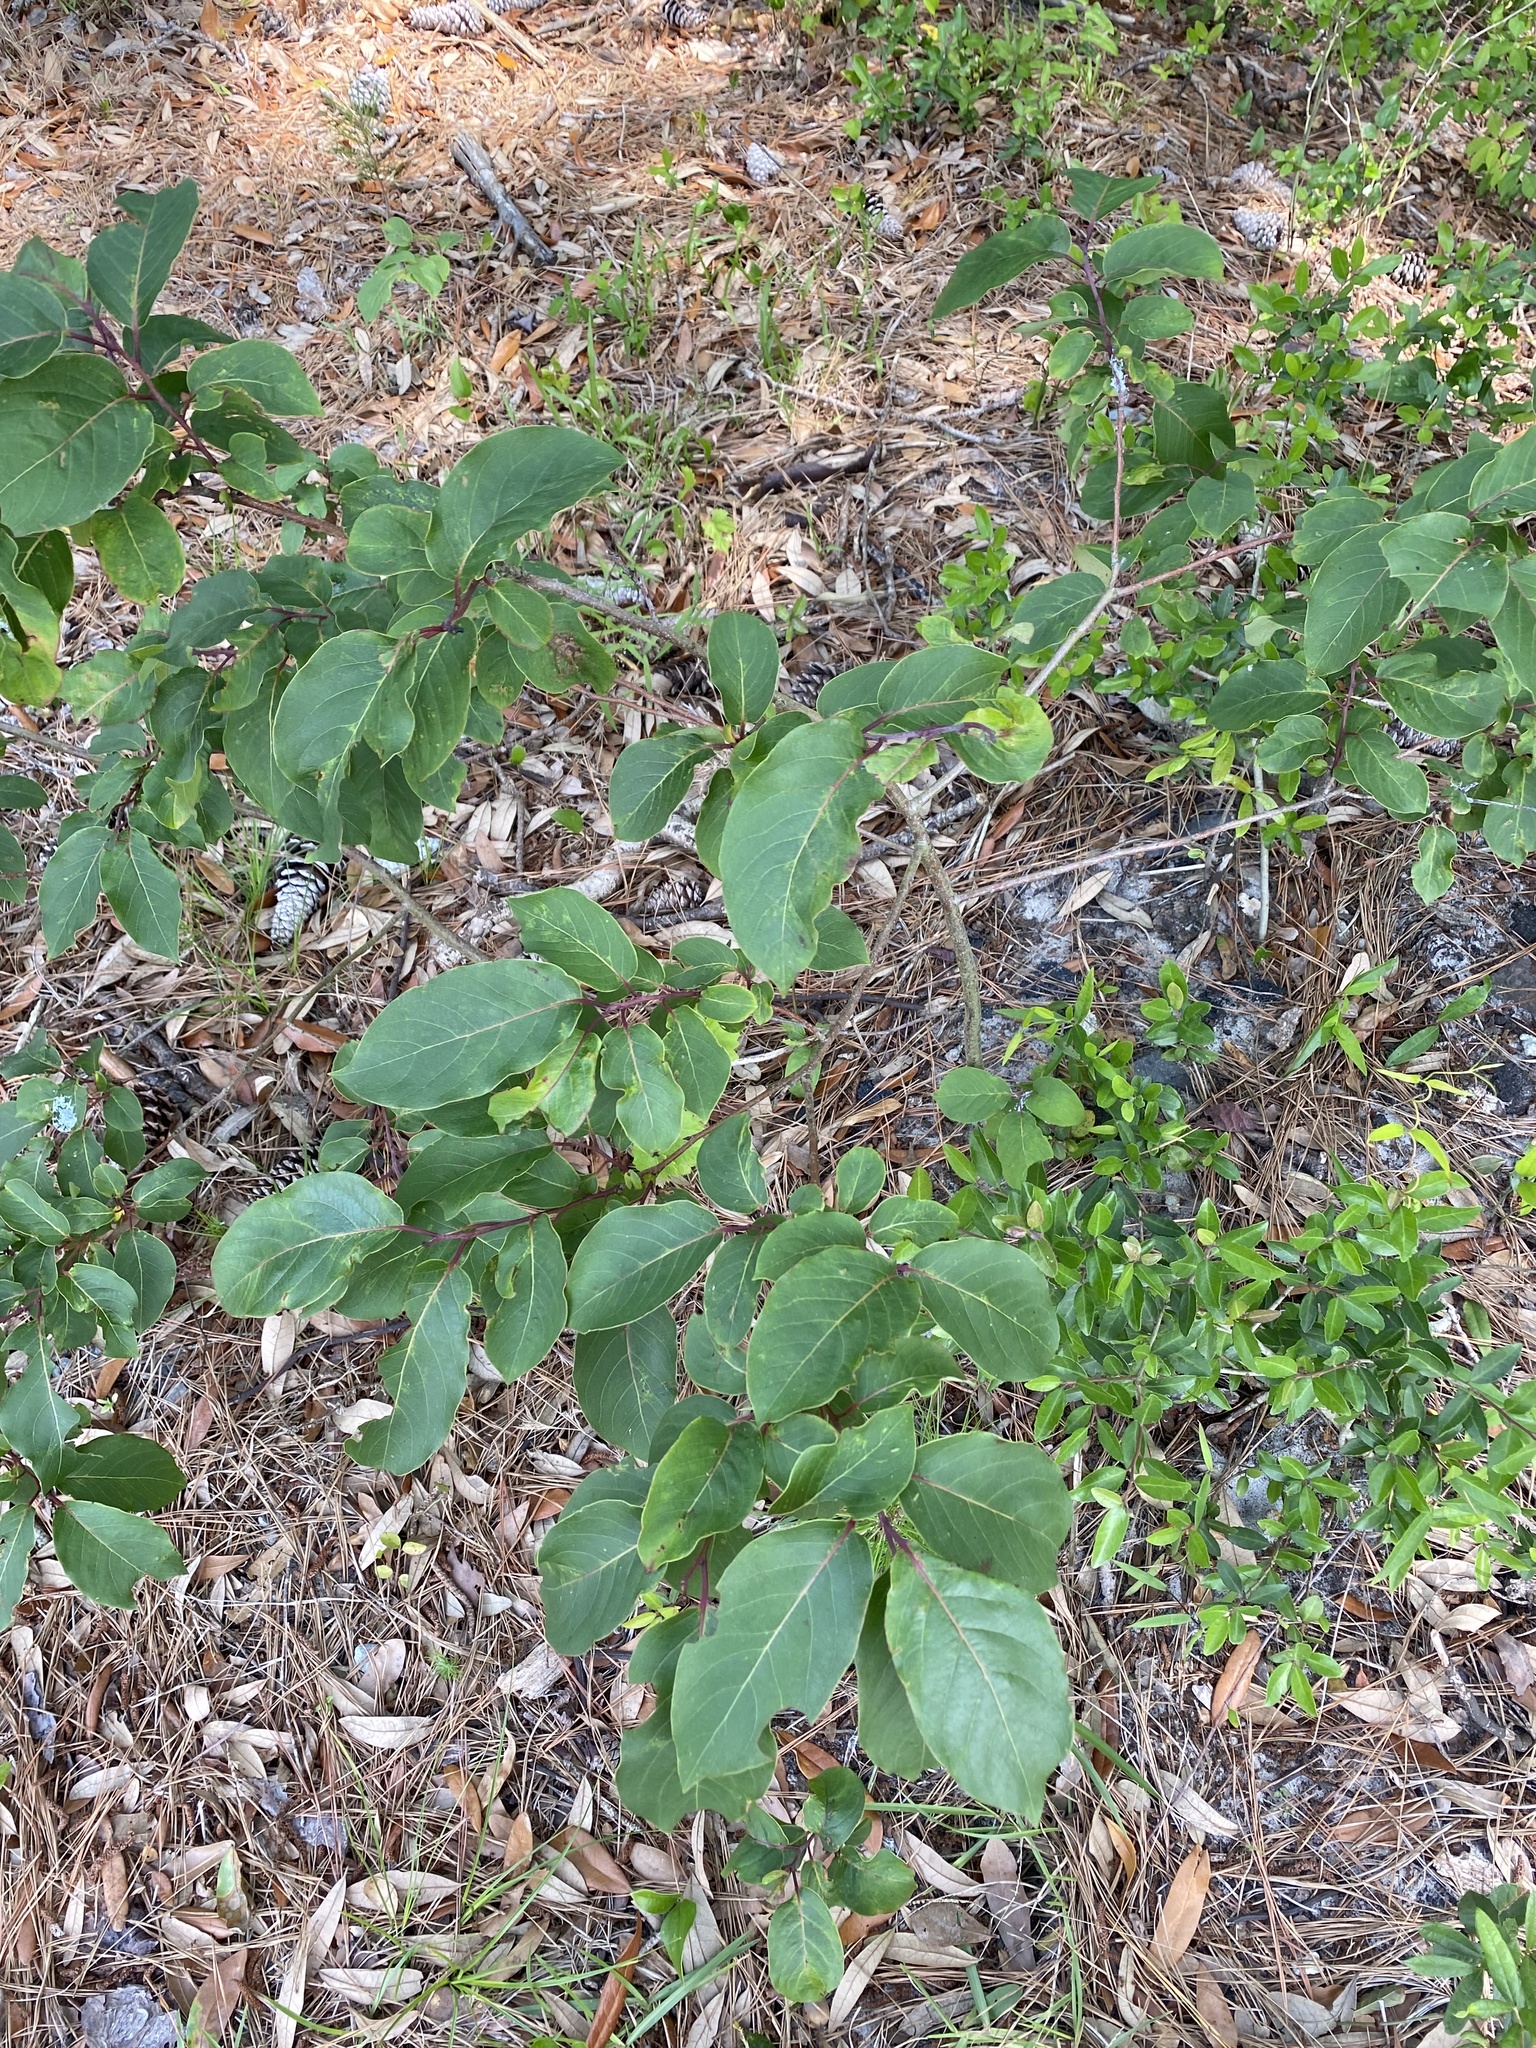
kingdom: Plantae
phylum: Tracheophyta
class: Magnoliopsida
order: Ericales
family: Ebenaceae
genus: Diospyros
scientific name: Diospyros virginiana
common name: Persimmon
